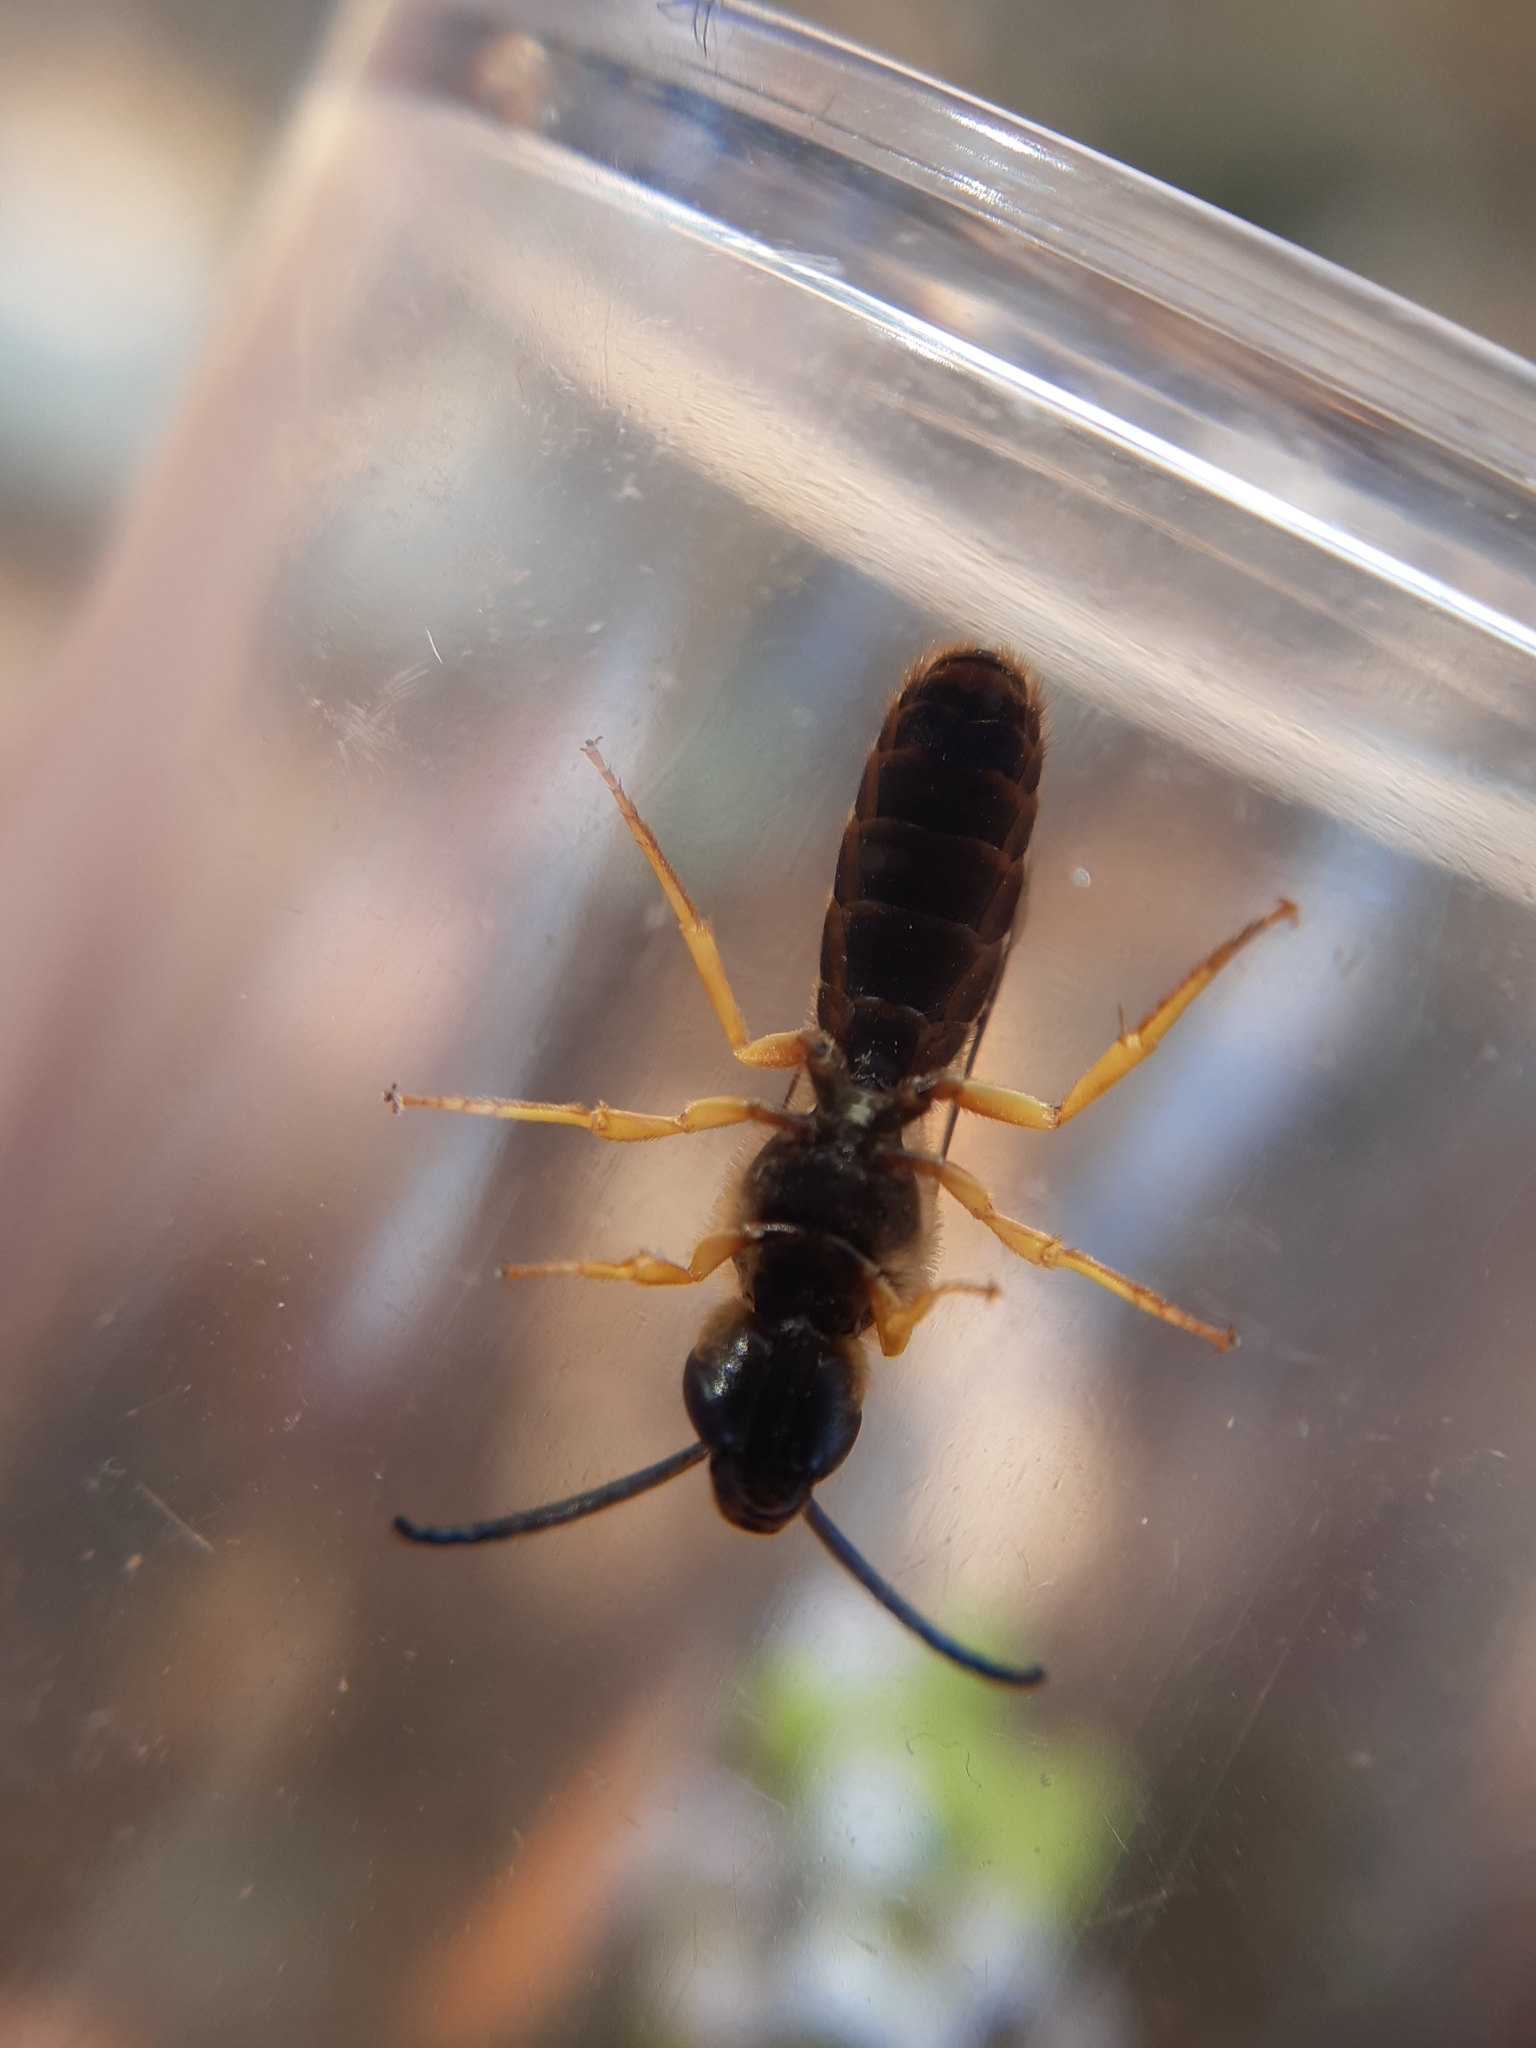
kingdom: Animalia
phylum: Arthropoda
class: Insecta
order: Hymenoptera
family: Halictidae
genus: Halictus
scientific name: Halictus scabiosae
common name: Great banded furrow bee
